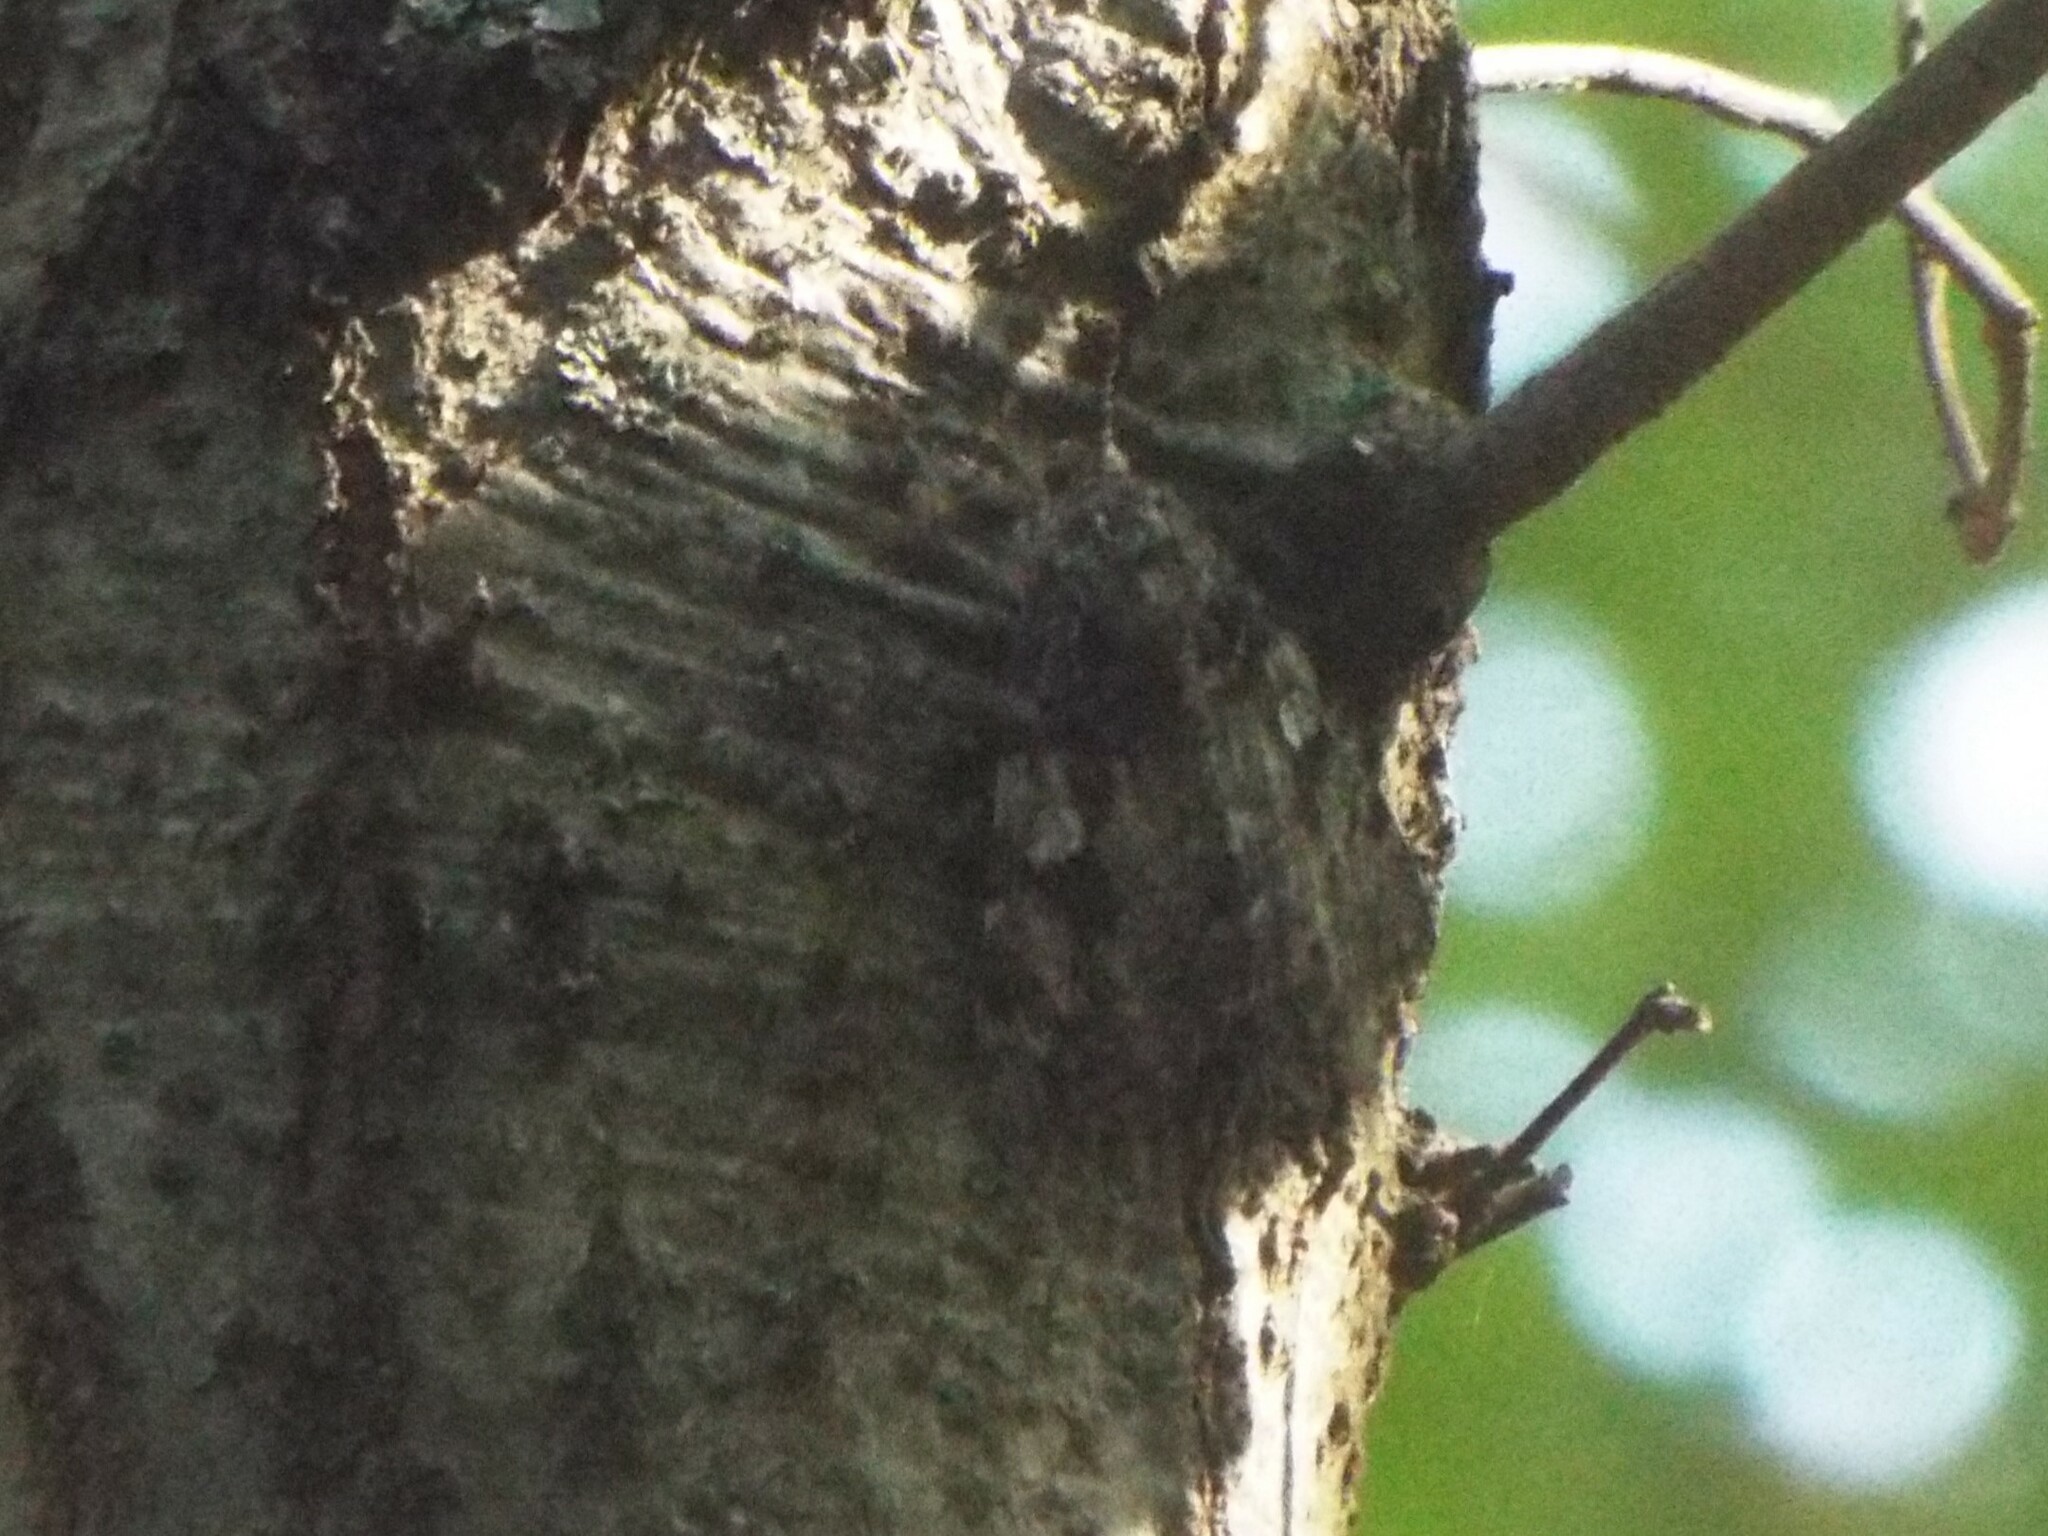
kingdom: Animalia
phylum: Arthropoda
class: Insecta
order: Lepidoptera
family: Erebidae
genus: Catocala
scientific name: Catocala ilia
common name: Ilia underwing
